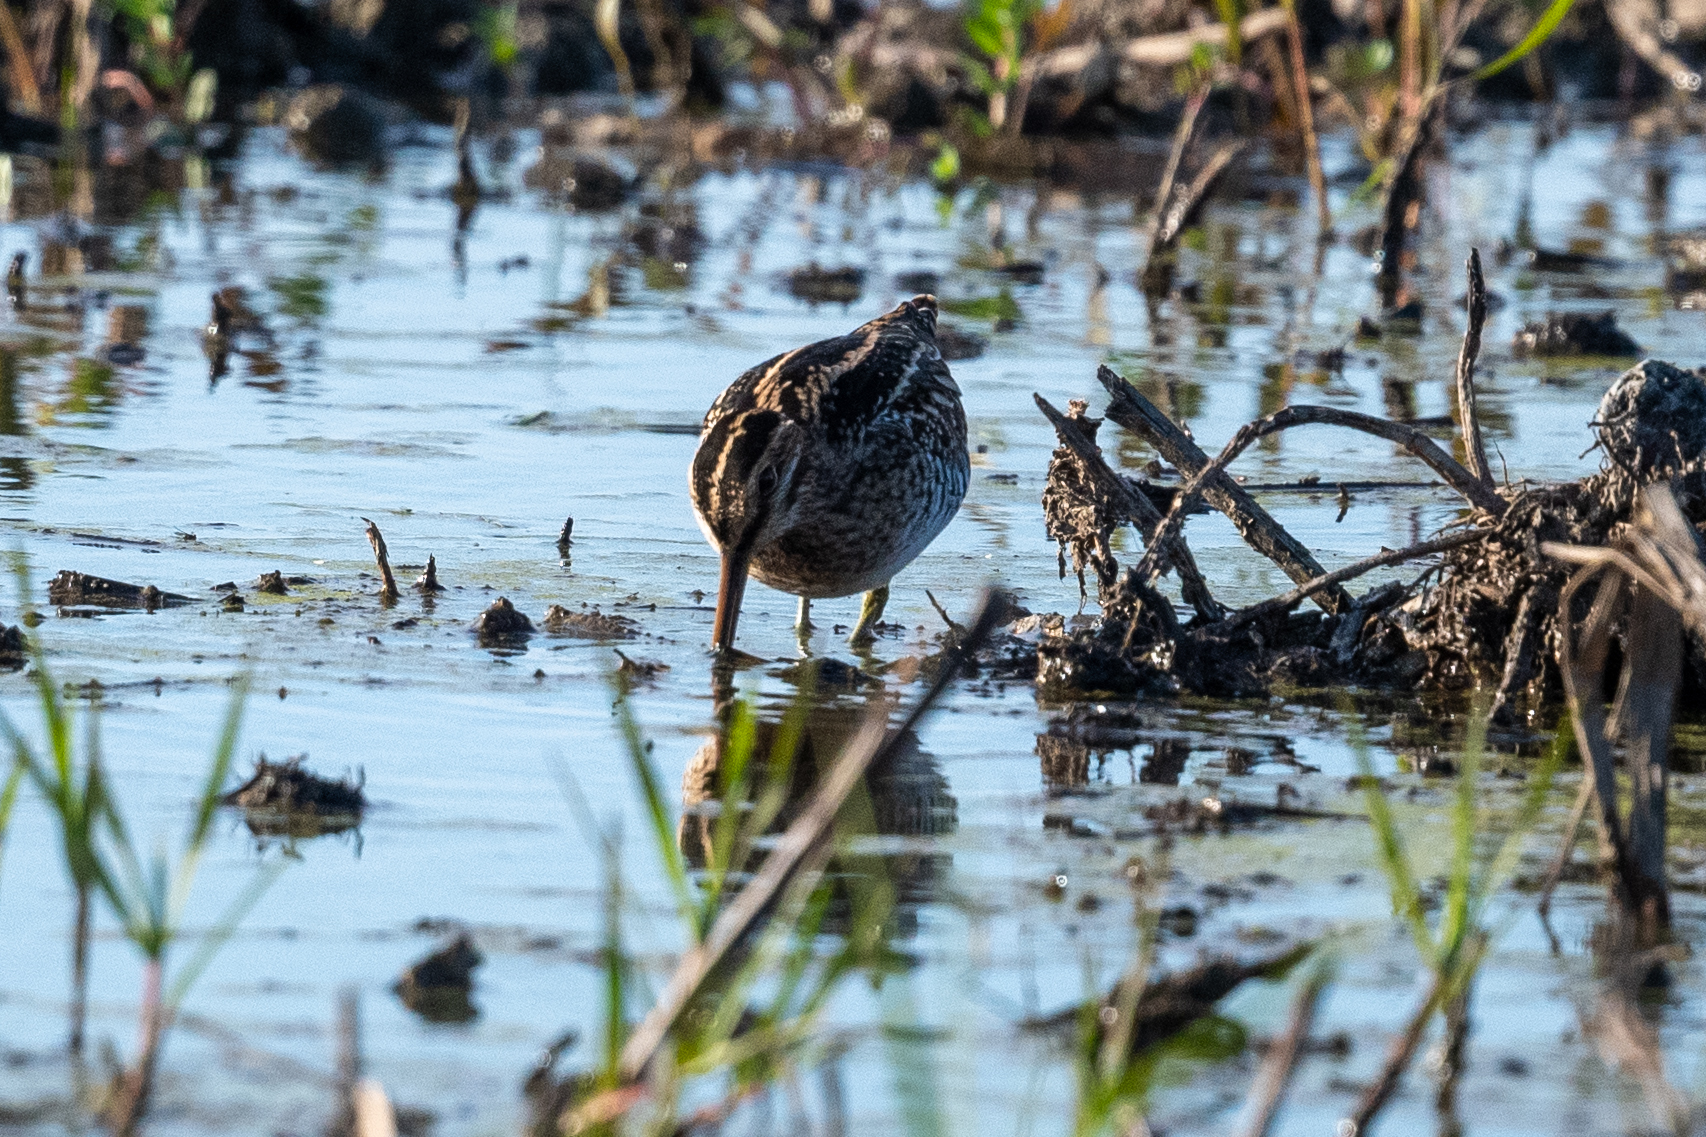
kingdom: Animalia
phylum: Chordata
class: Aves
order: Charadriiformes
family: Scolopacidae
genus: Gallinago
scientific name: Gallinago delicata
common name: Wilson's snipe
